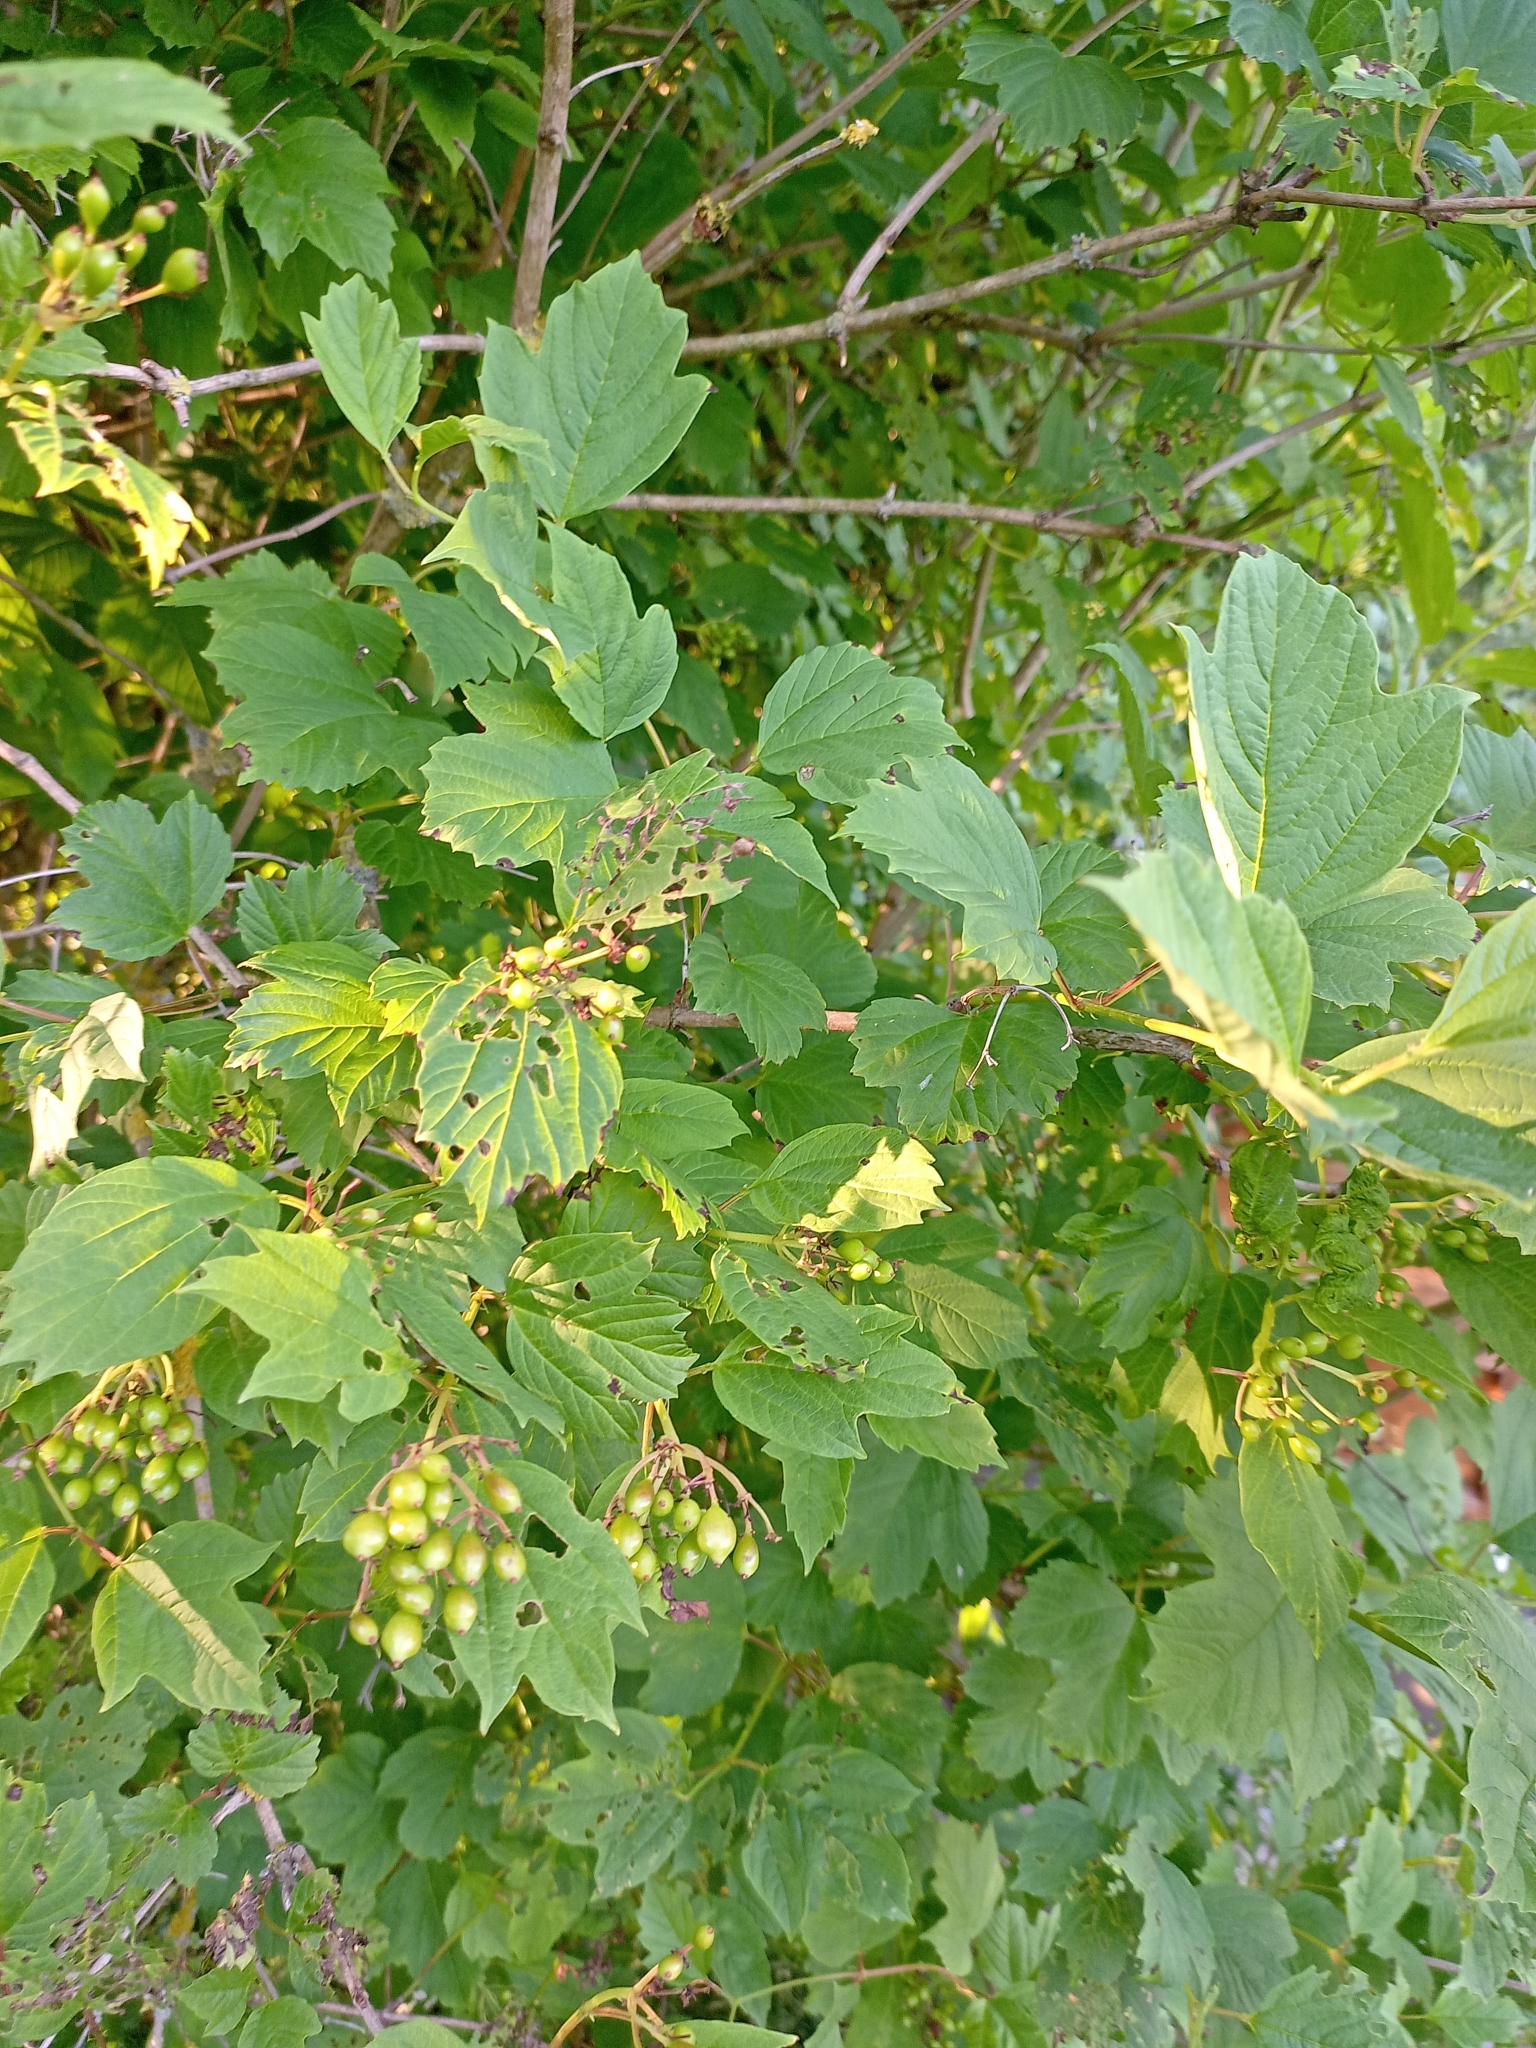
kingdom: Plantae
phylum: Tracheophyta
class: Magnoliopsida
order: Dipsacales
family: Viburnaceae
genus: Viburnum
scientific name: Viburnum opulus
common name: Guelder-rose
